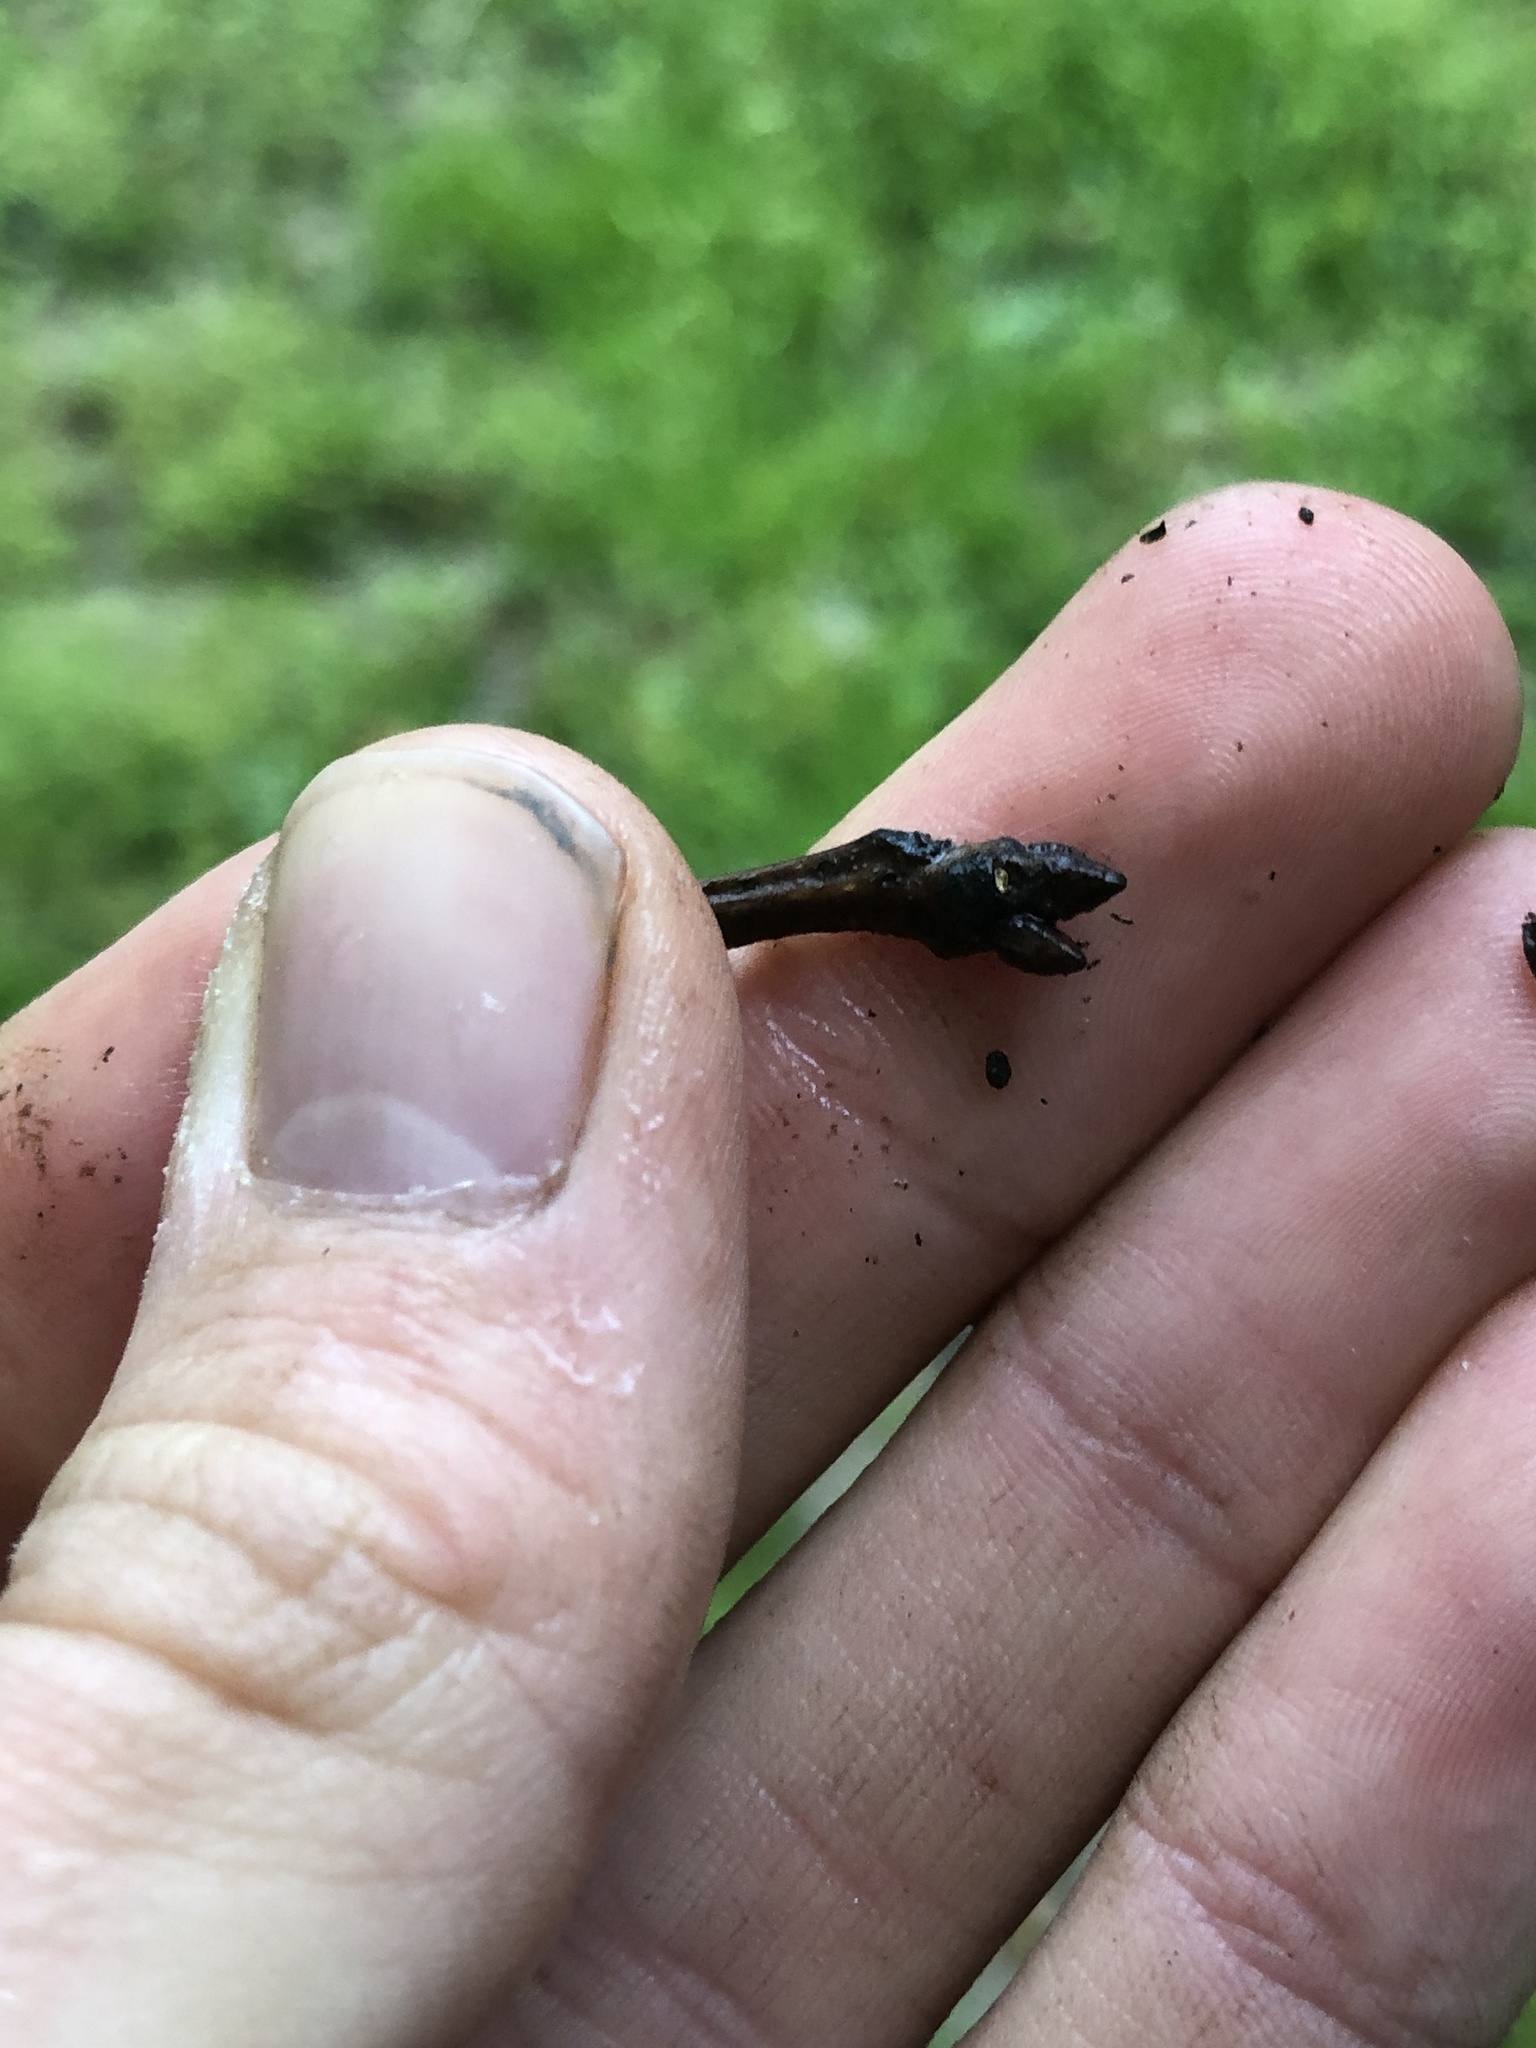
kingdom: Plantae
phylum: Tracheophyta
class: Magnoliopsida
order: Fagales
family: Fagaceae
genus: Quercus
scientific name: Quercus rubra
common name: Red oak
